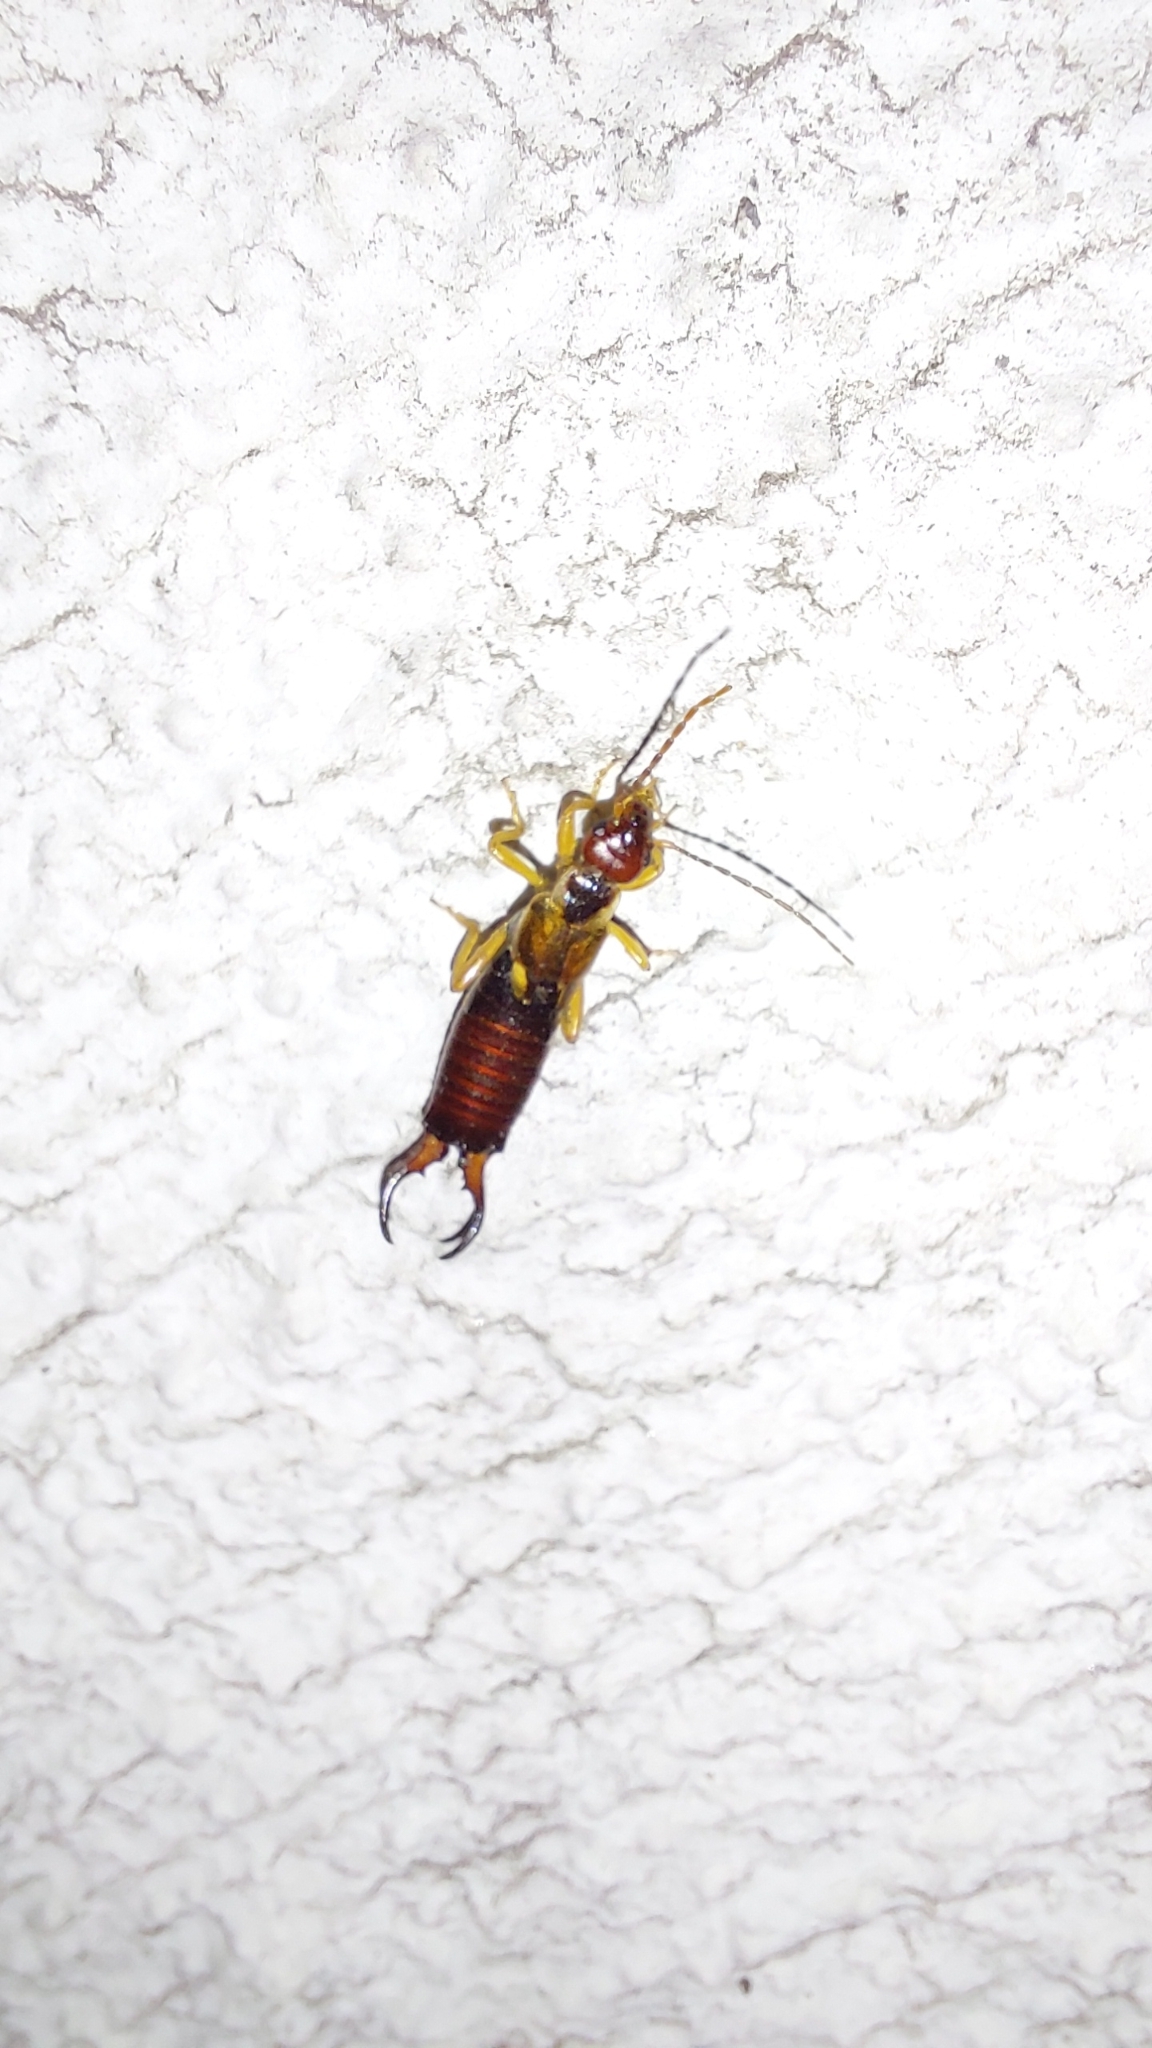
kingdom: Animalia
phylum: Arthropoda
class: Insecta
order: Dermaptera
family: Forficulidae
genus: Forficula
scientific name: Forficula
